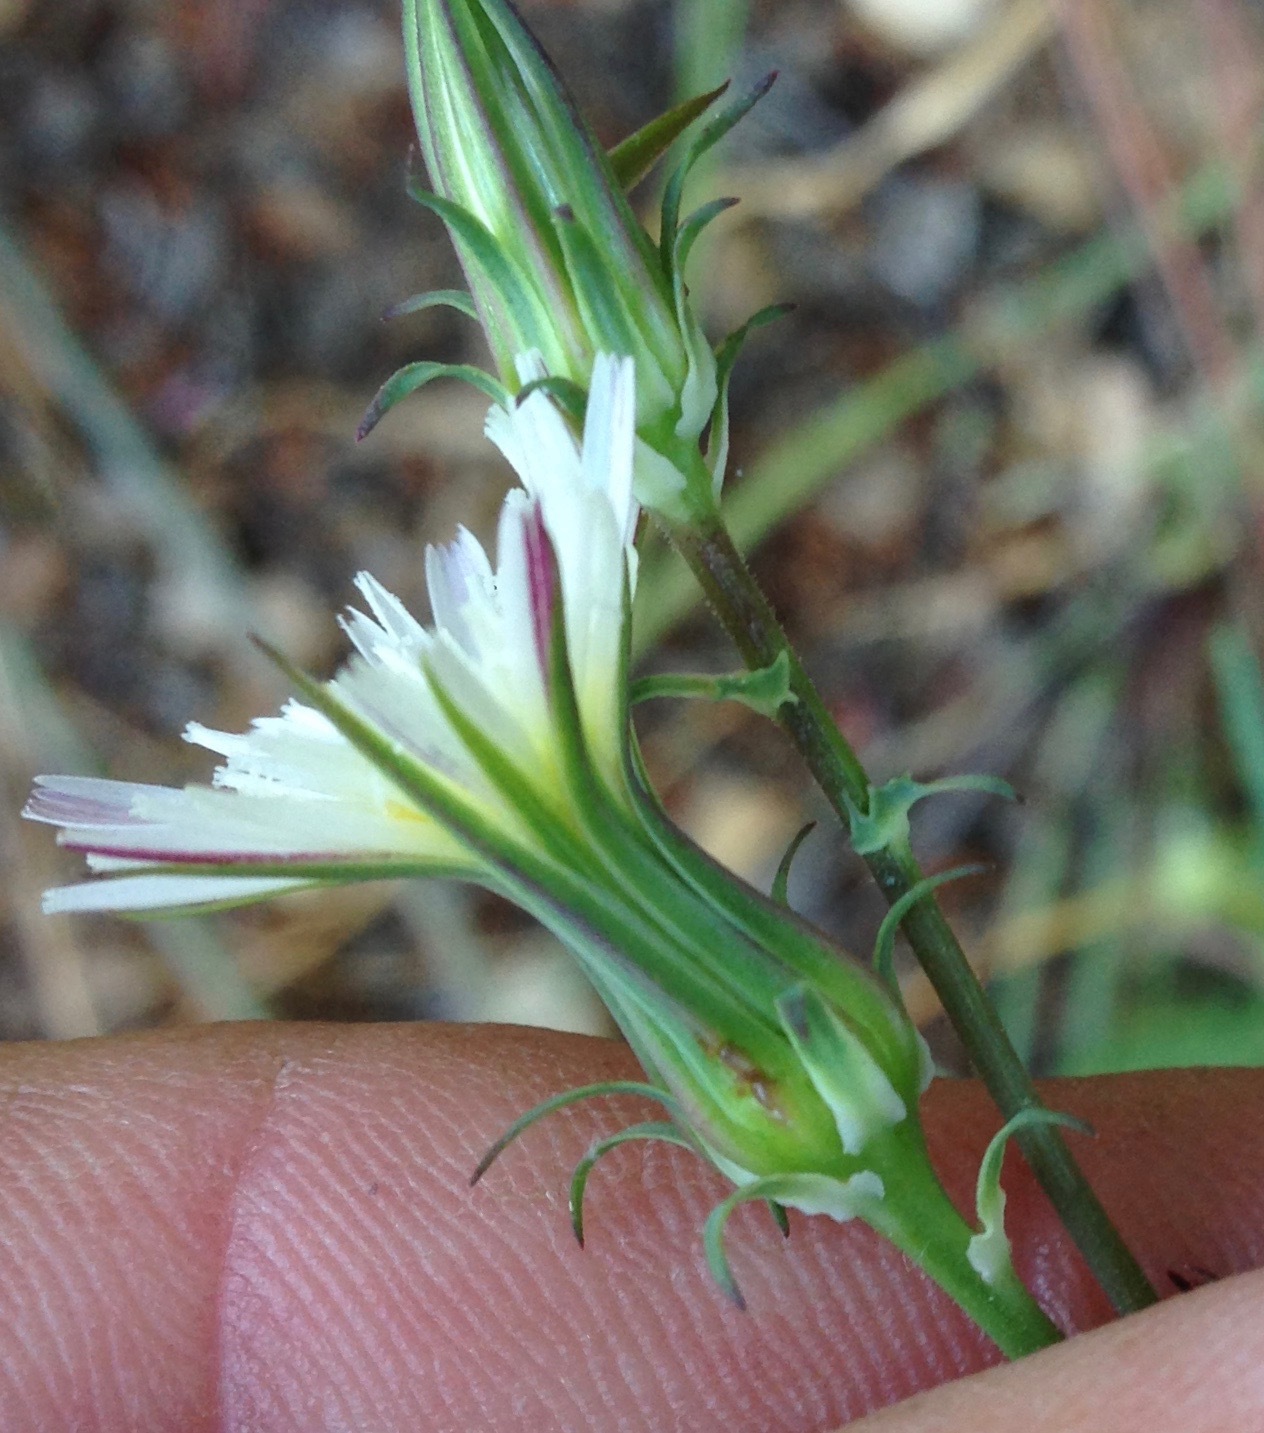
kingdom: Plantae
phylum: Tracheophyta
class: Magnoliopsida
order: Asterales
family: Asteraceae
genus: Rafinesquia
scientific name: Rafinesquia californica
